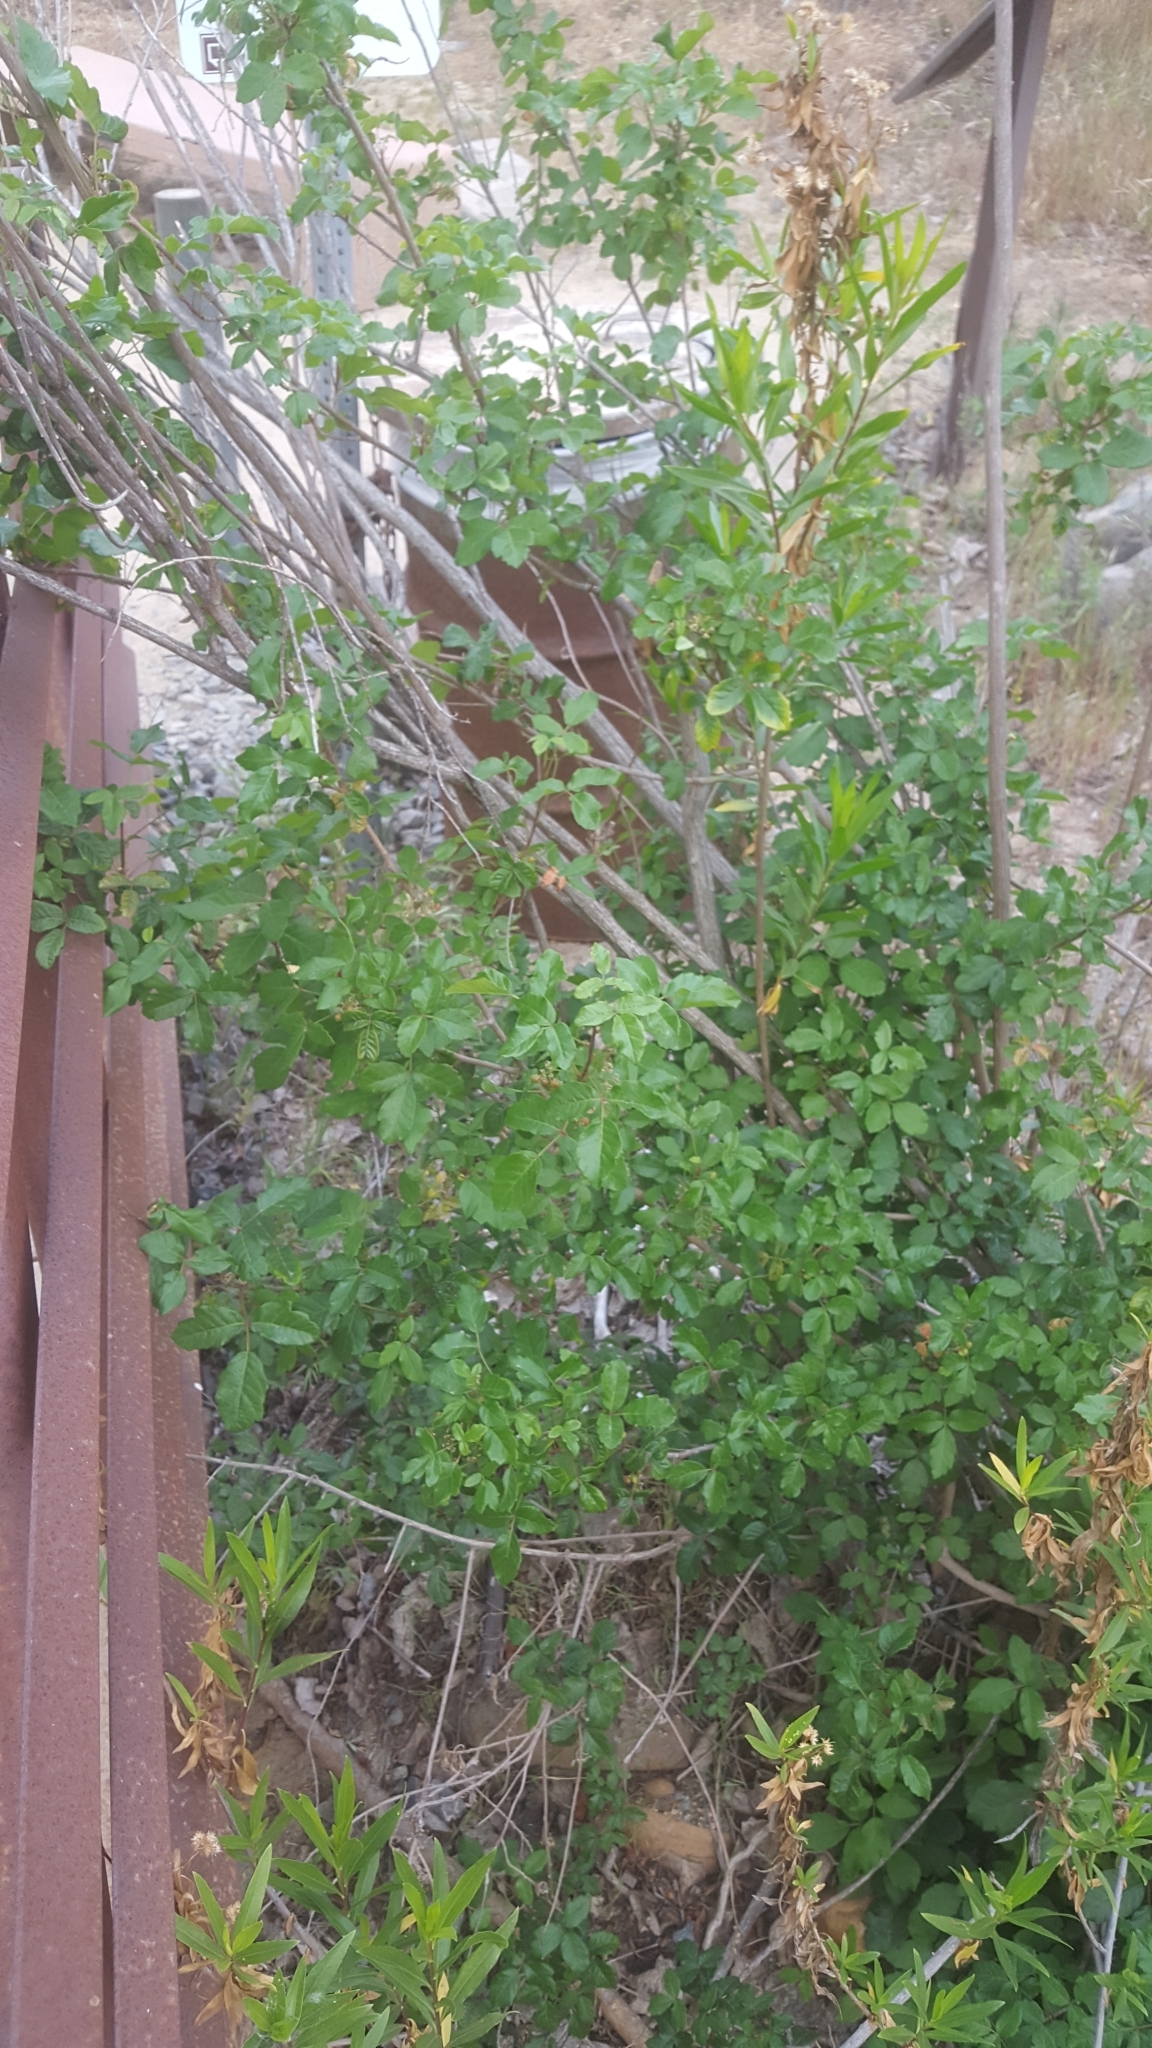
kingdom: Plantae
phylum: Tracheophyta
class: Magnoliopsida
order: Sapindales
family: Anacardiaceae
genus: Toxicodendron
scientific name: Toxicodendron diversilobum
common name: Pacific poison-oak
